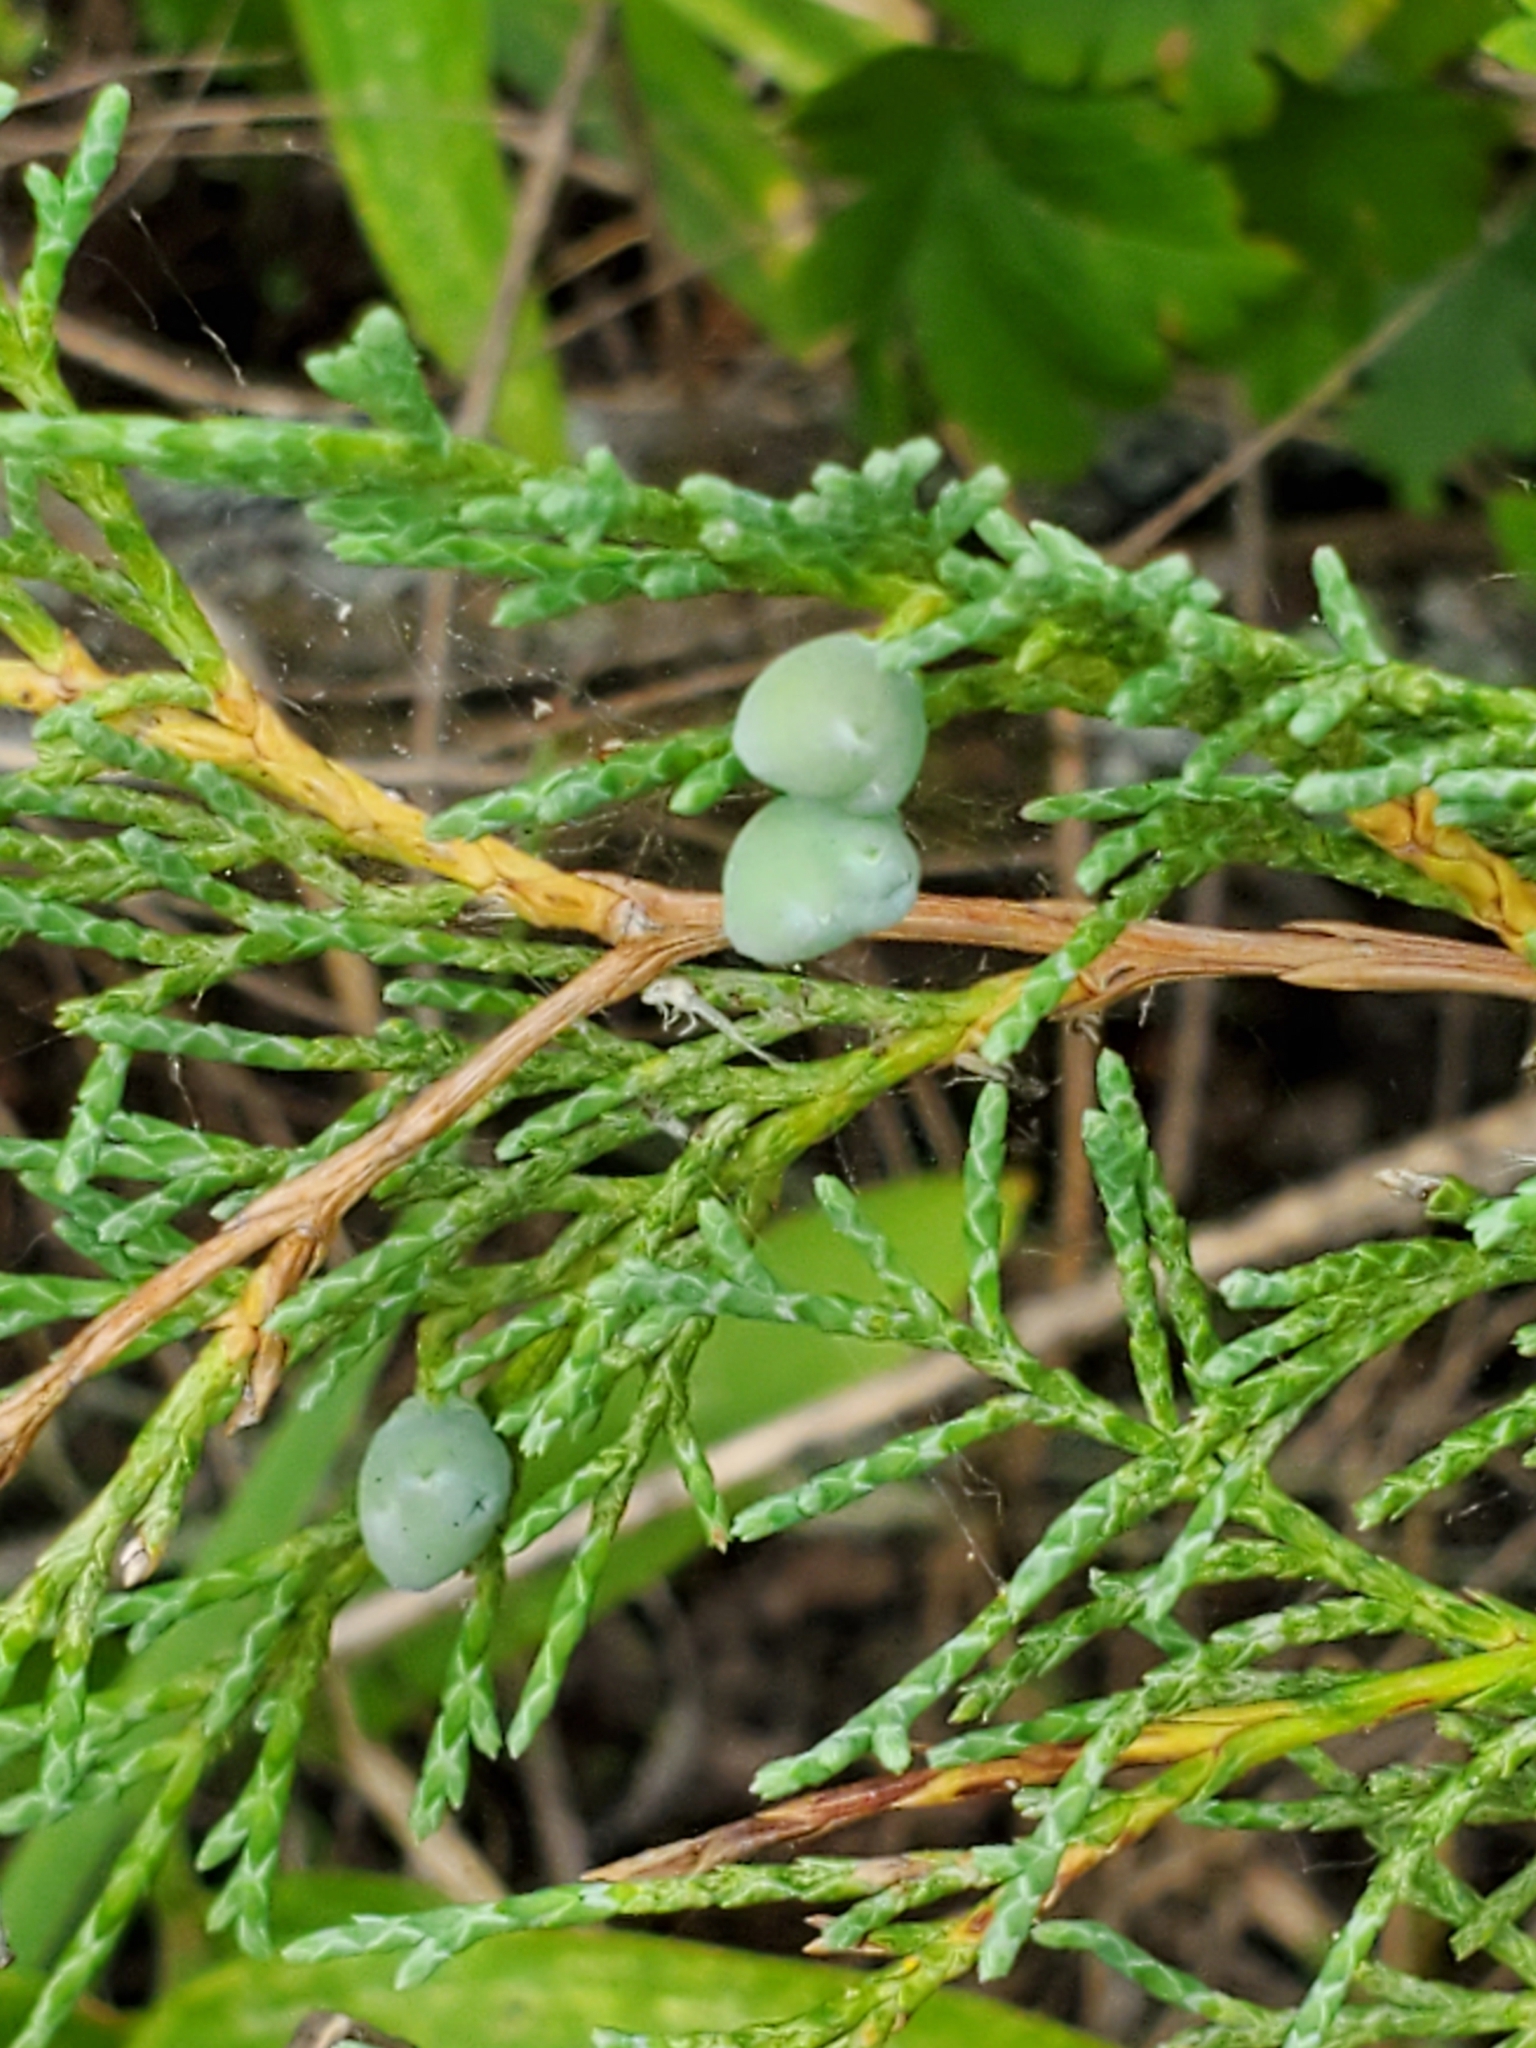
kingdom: Plantae
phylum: Tracheophyta
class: Pinopsida
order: Pinales
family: Cupressaceae
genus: Juniperus
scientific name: Juniperus scopulorum
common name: Rocky mountain juniper
